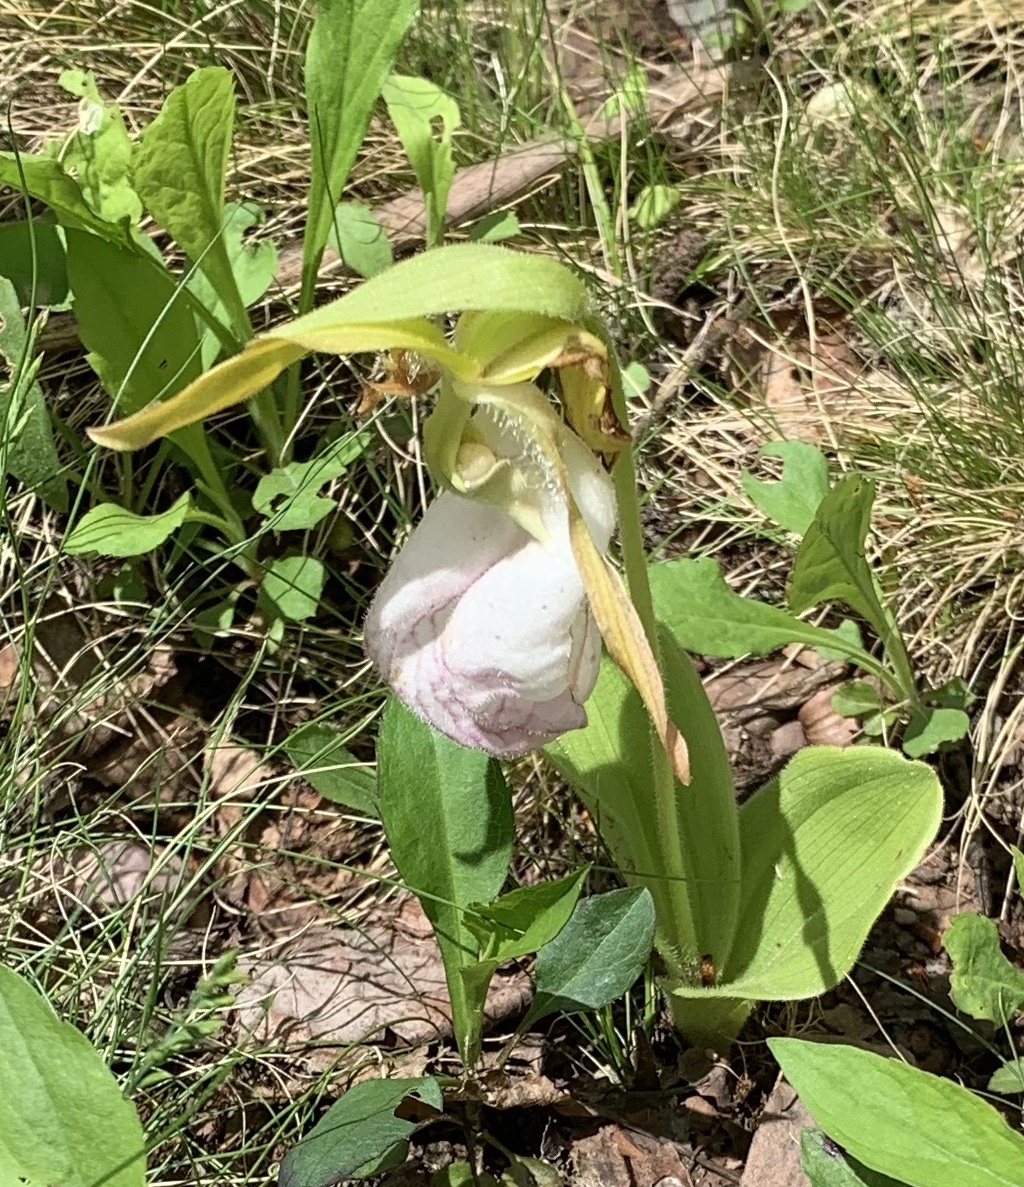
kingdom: Plantae
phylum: Tracheophyta
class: Liliopsida
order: Asparagales
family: Orchidaceae
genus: Cypripedium
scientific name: Cypripedium acaule
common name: Pink lady's-slipper
